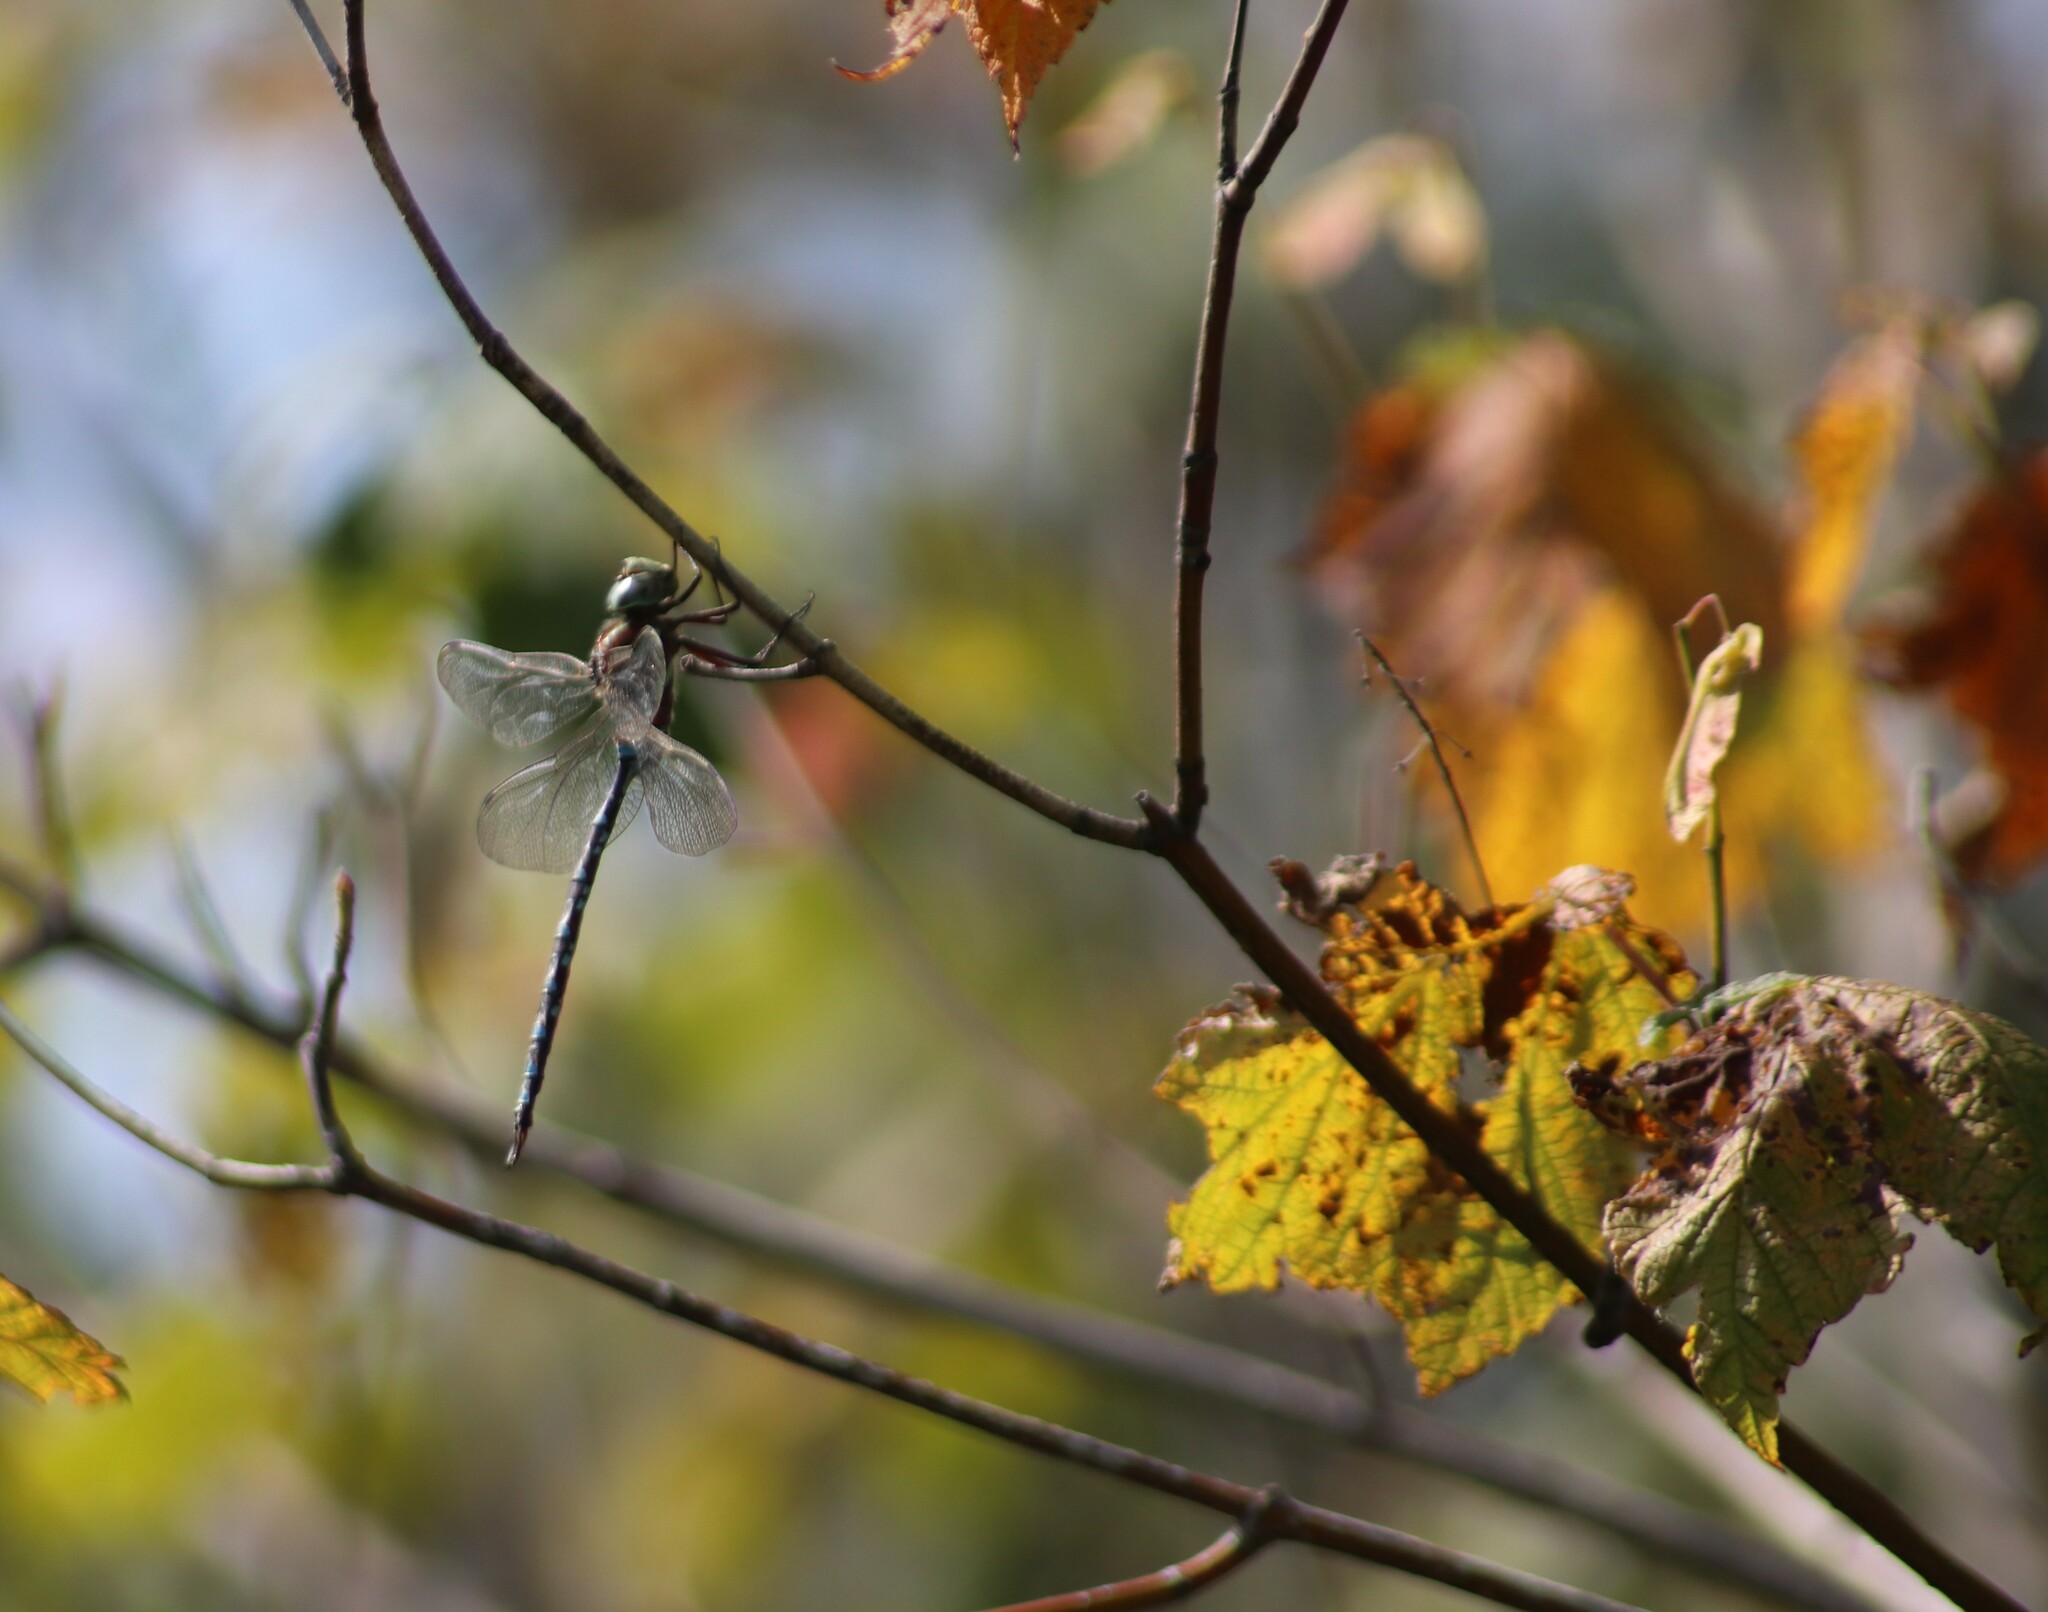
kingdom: Animalia
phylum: Arthropoda
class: Insecta
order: Odonata
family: Aeshnidae
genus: Aeshna
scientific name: Aeshna tuberculifera
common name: Aeschne à tubercules
